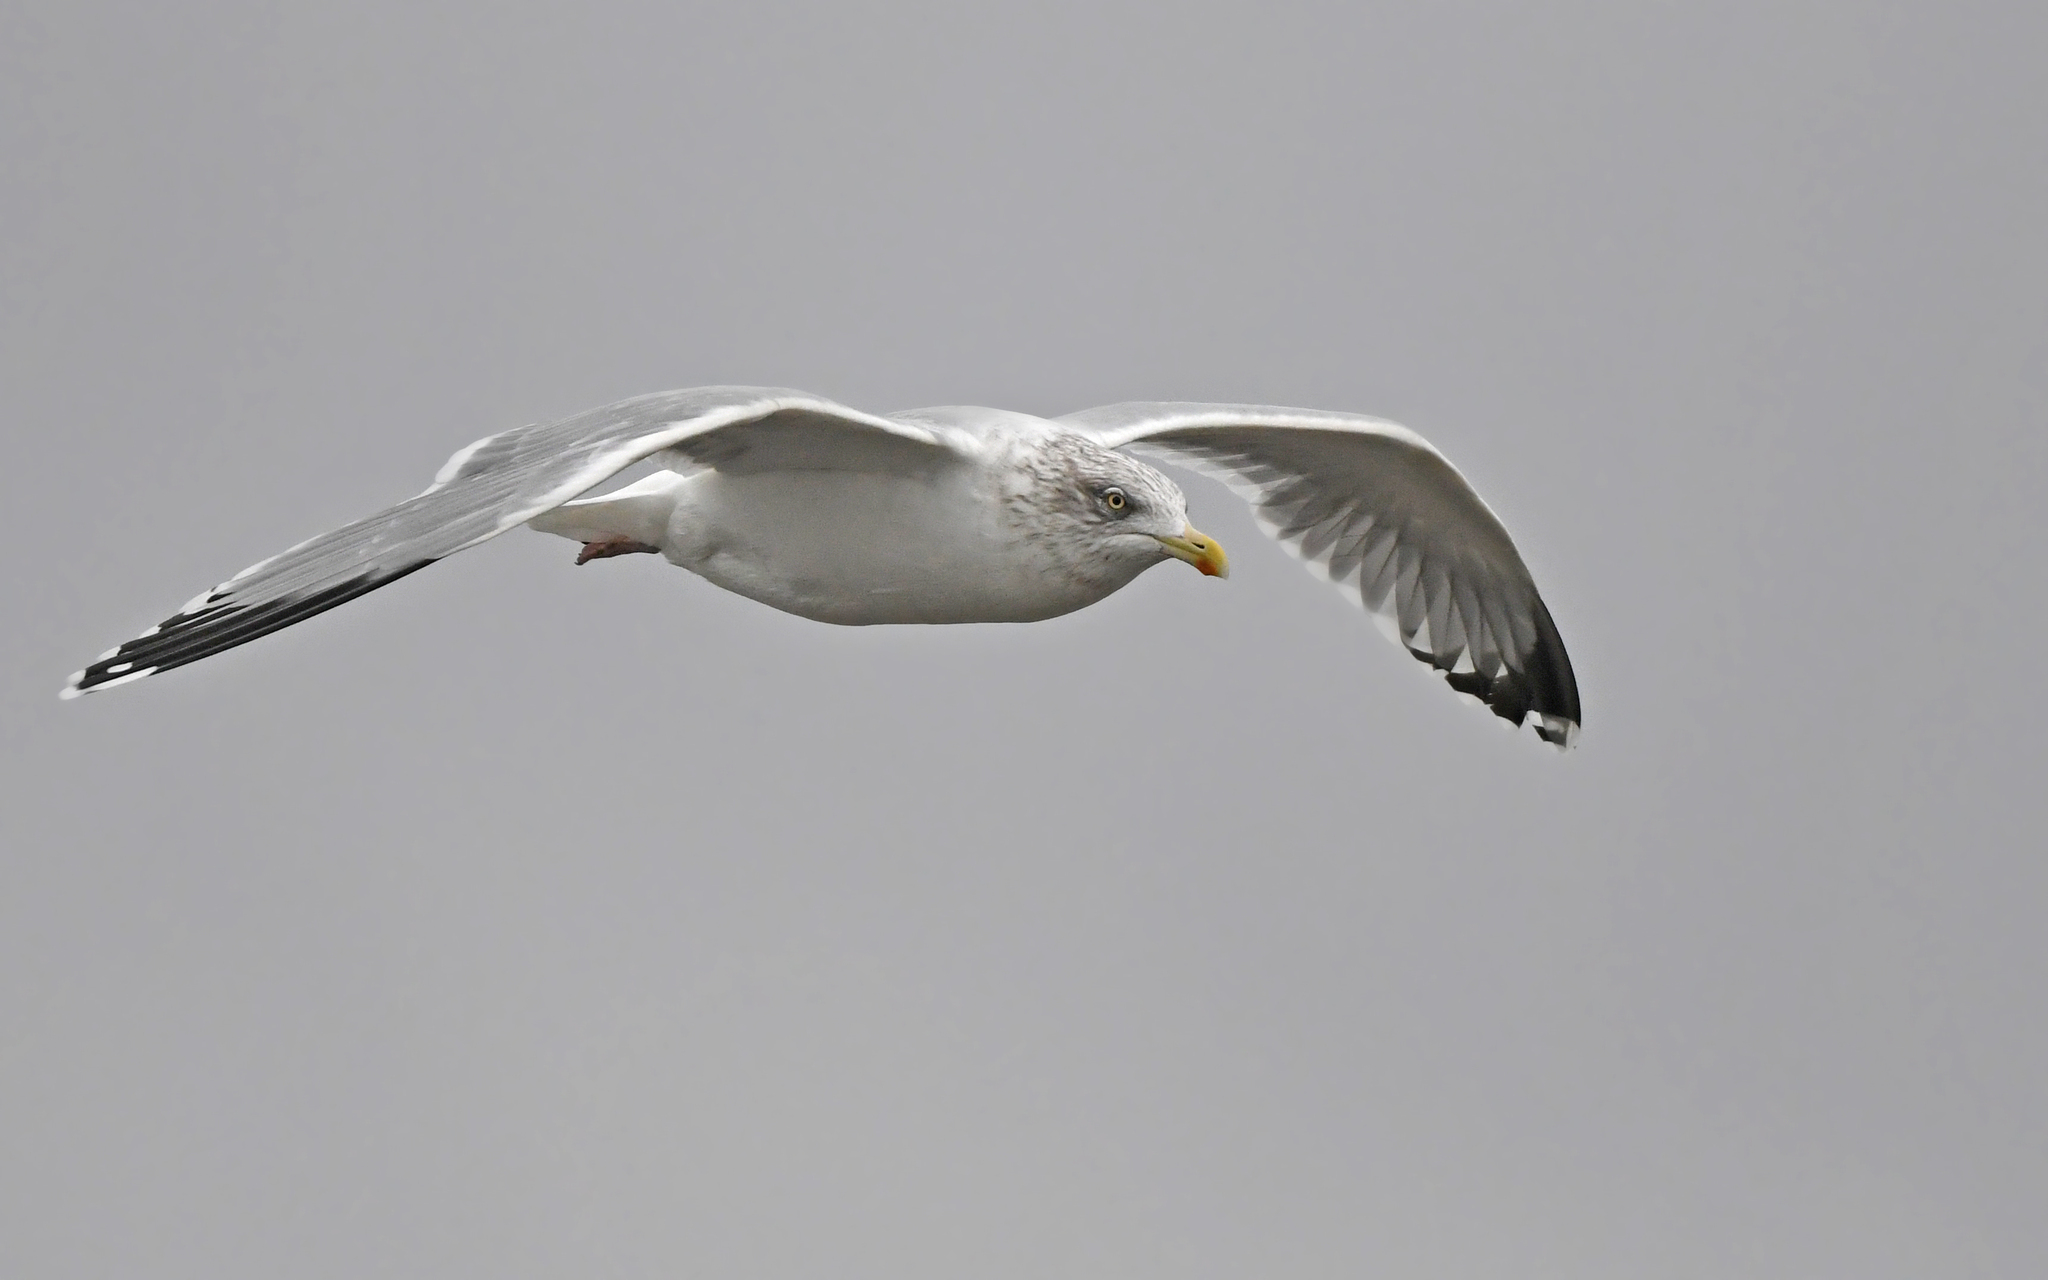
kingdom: Animalia
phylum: Chordata
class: Aves
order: Charadriiformes
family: Laridae
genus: Larus
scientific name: Larus argentatus
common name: Herring gull
